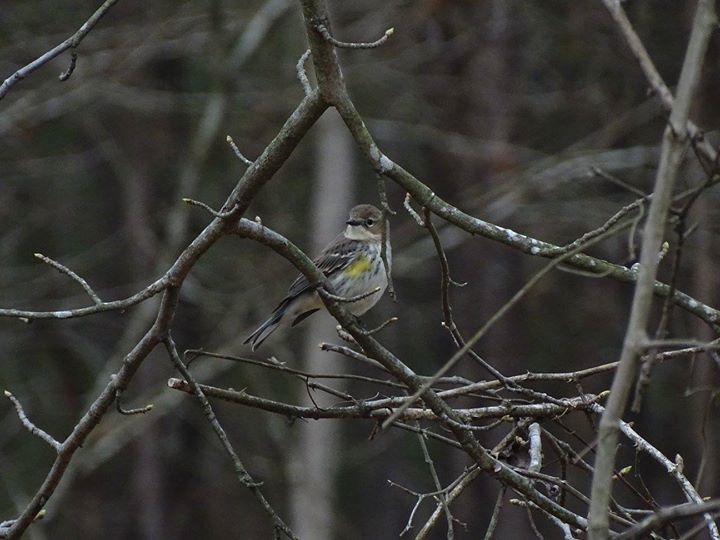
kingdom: Animalia
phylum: Chordata
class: Aves
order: Passeriformes
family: Parulidae
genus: Setophaga
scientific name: Setophaga coronata
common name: Myrtle warbler
